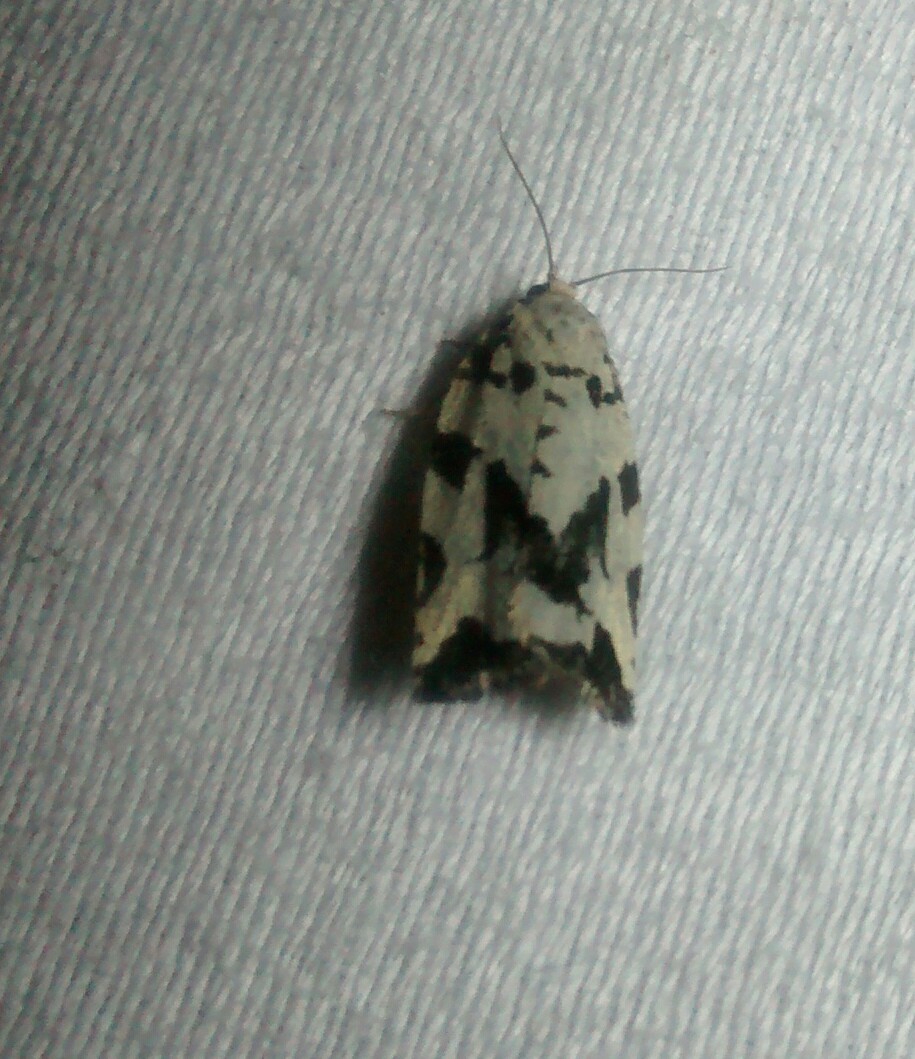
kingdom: Animalia
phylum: Arthropoda
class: Insecta
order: Lepidoptera
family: Tortricidae
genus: Archips
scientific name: Archips dissitana
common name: Boldly-marked archips moth
